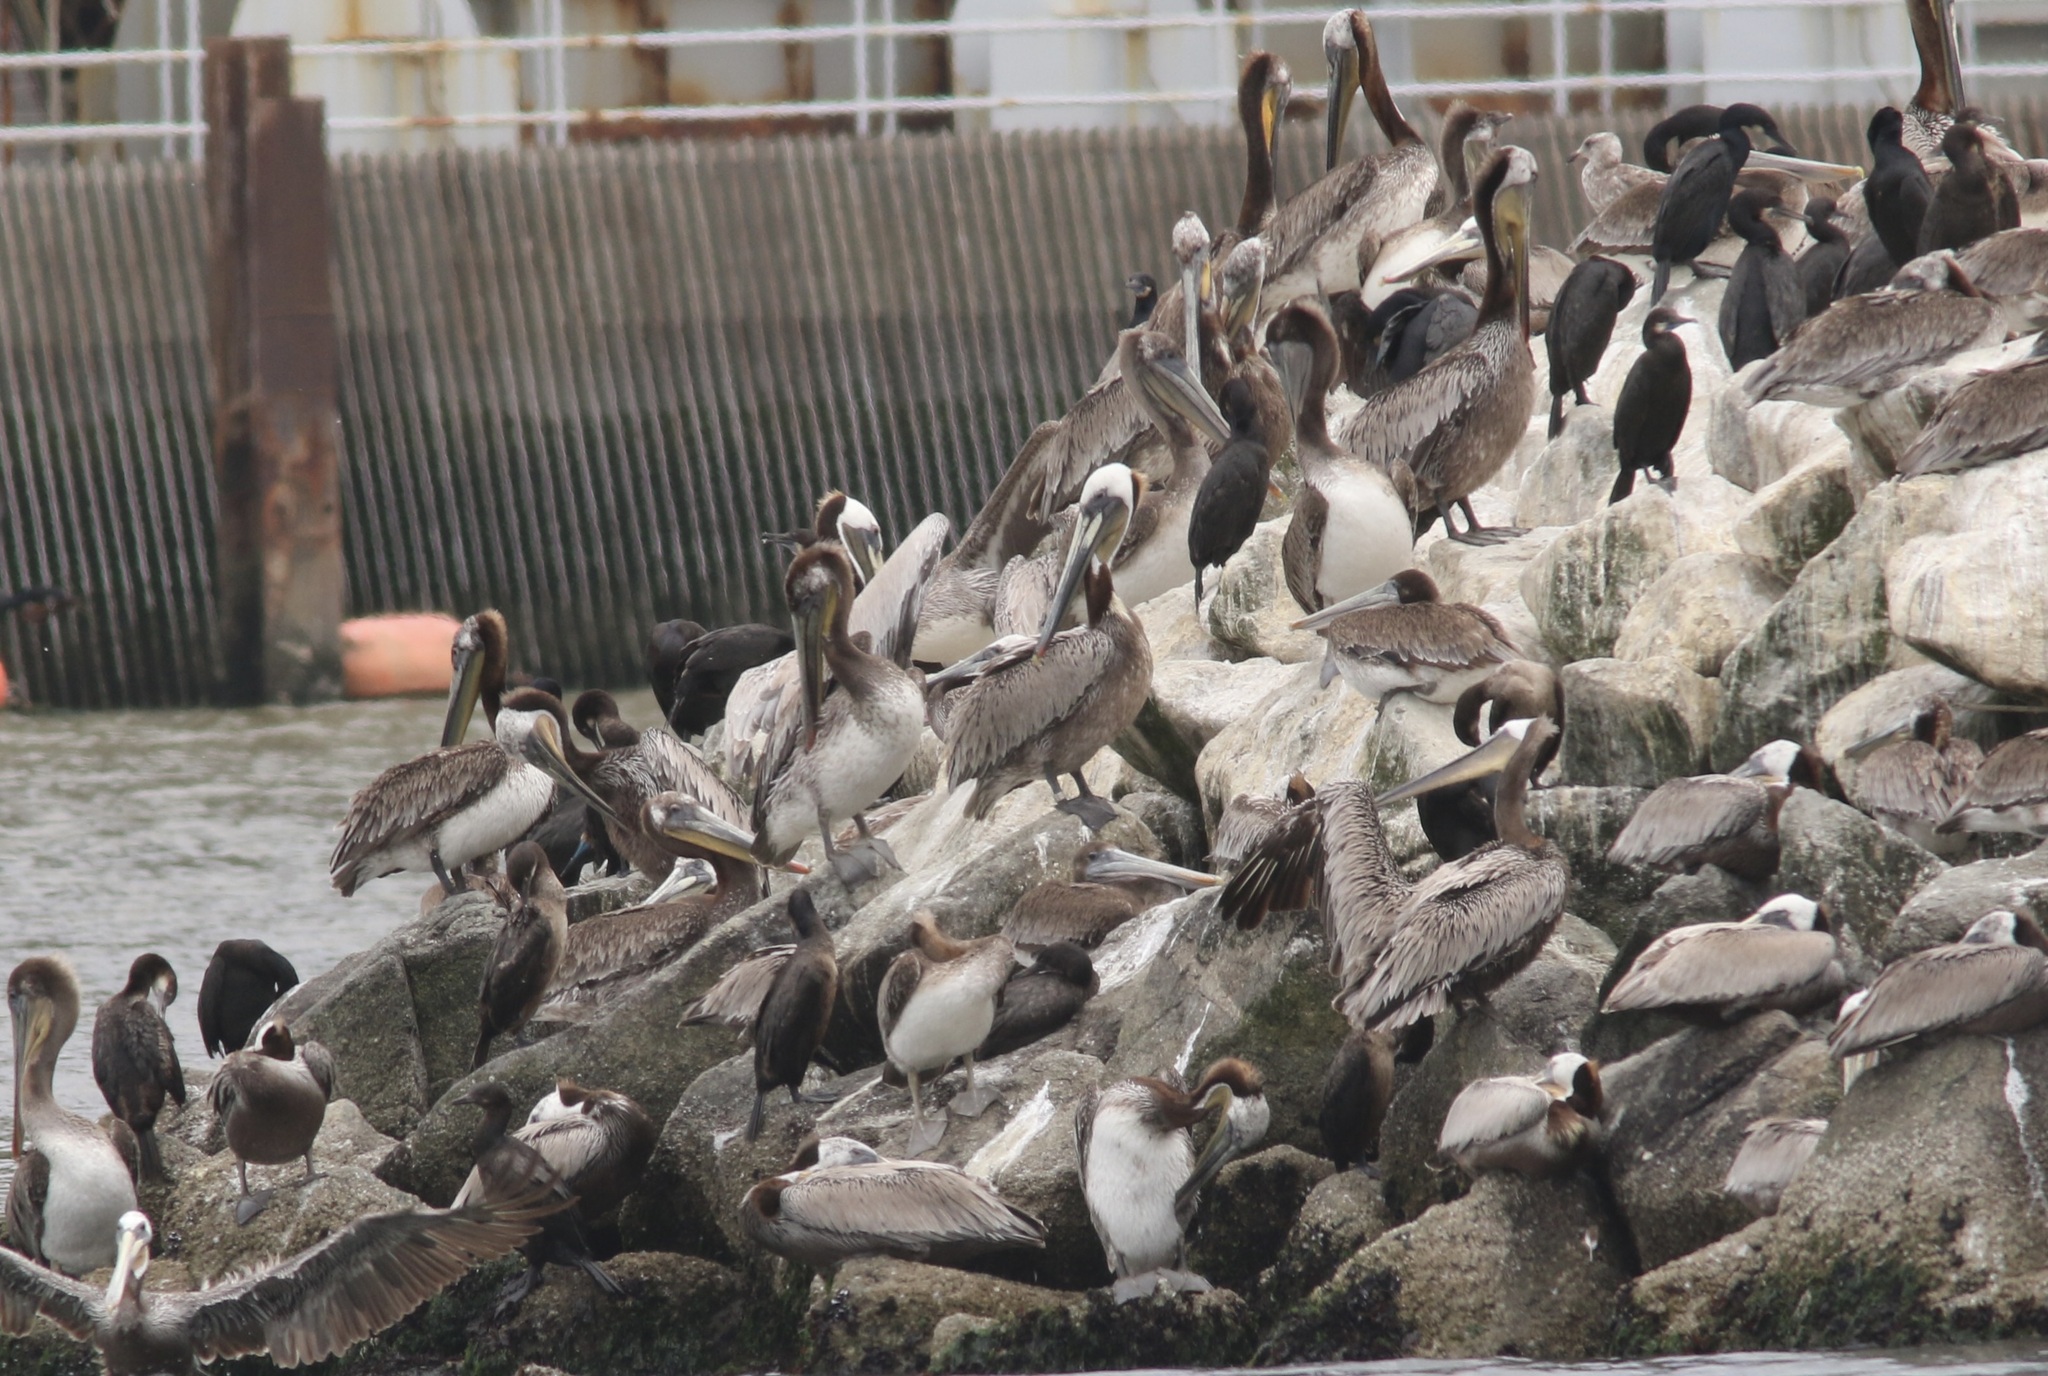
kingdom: Animalia
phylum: Chordata
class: Aves
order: Pelecaniformes
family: Pelecanidae
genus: Pelecanus
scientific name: Pelecanus occidentalis
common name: Brown pelican
